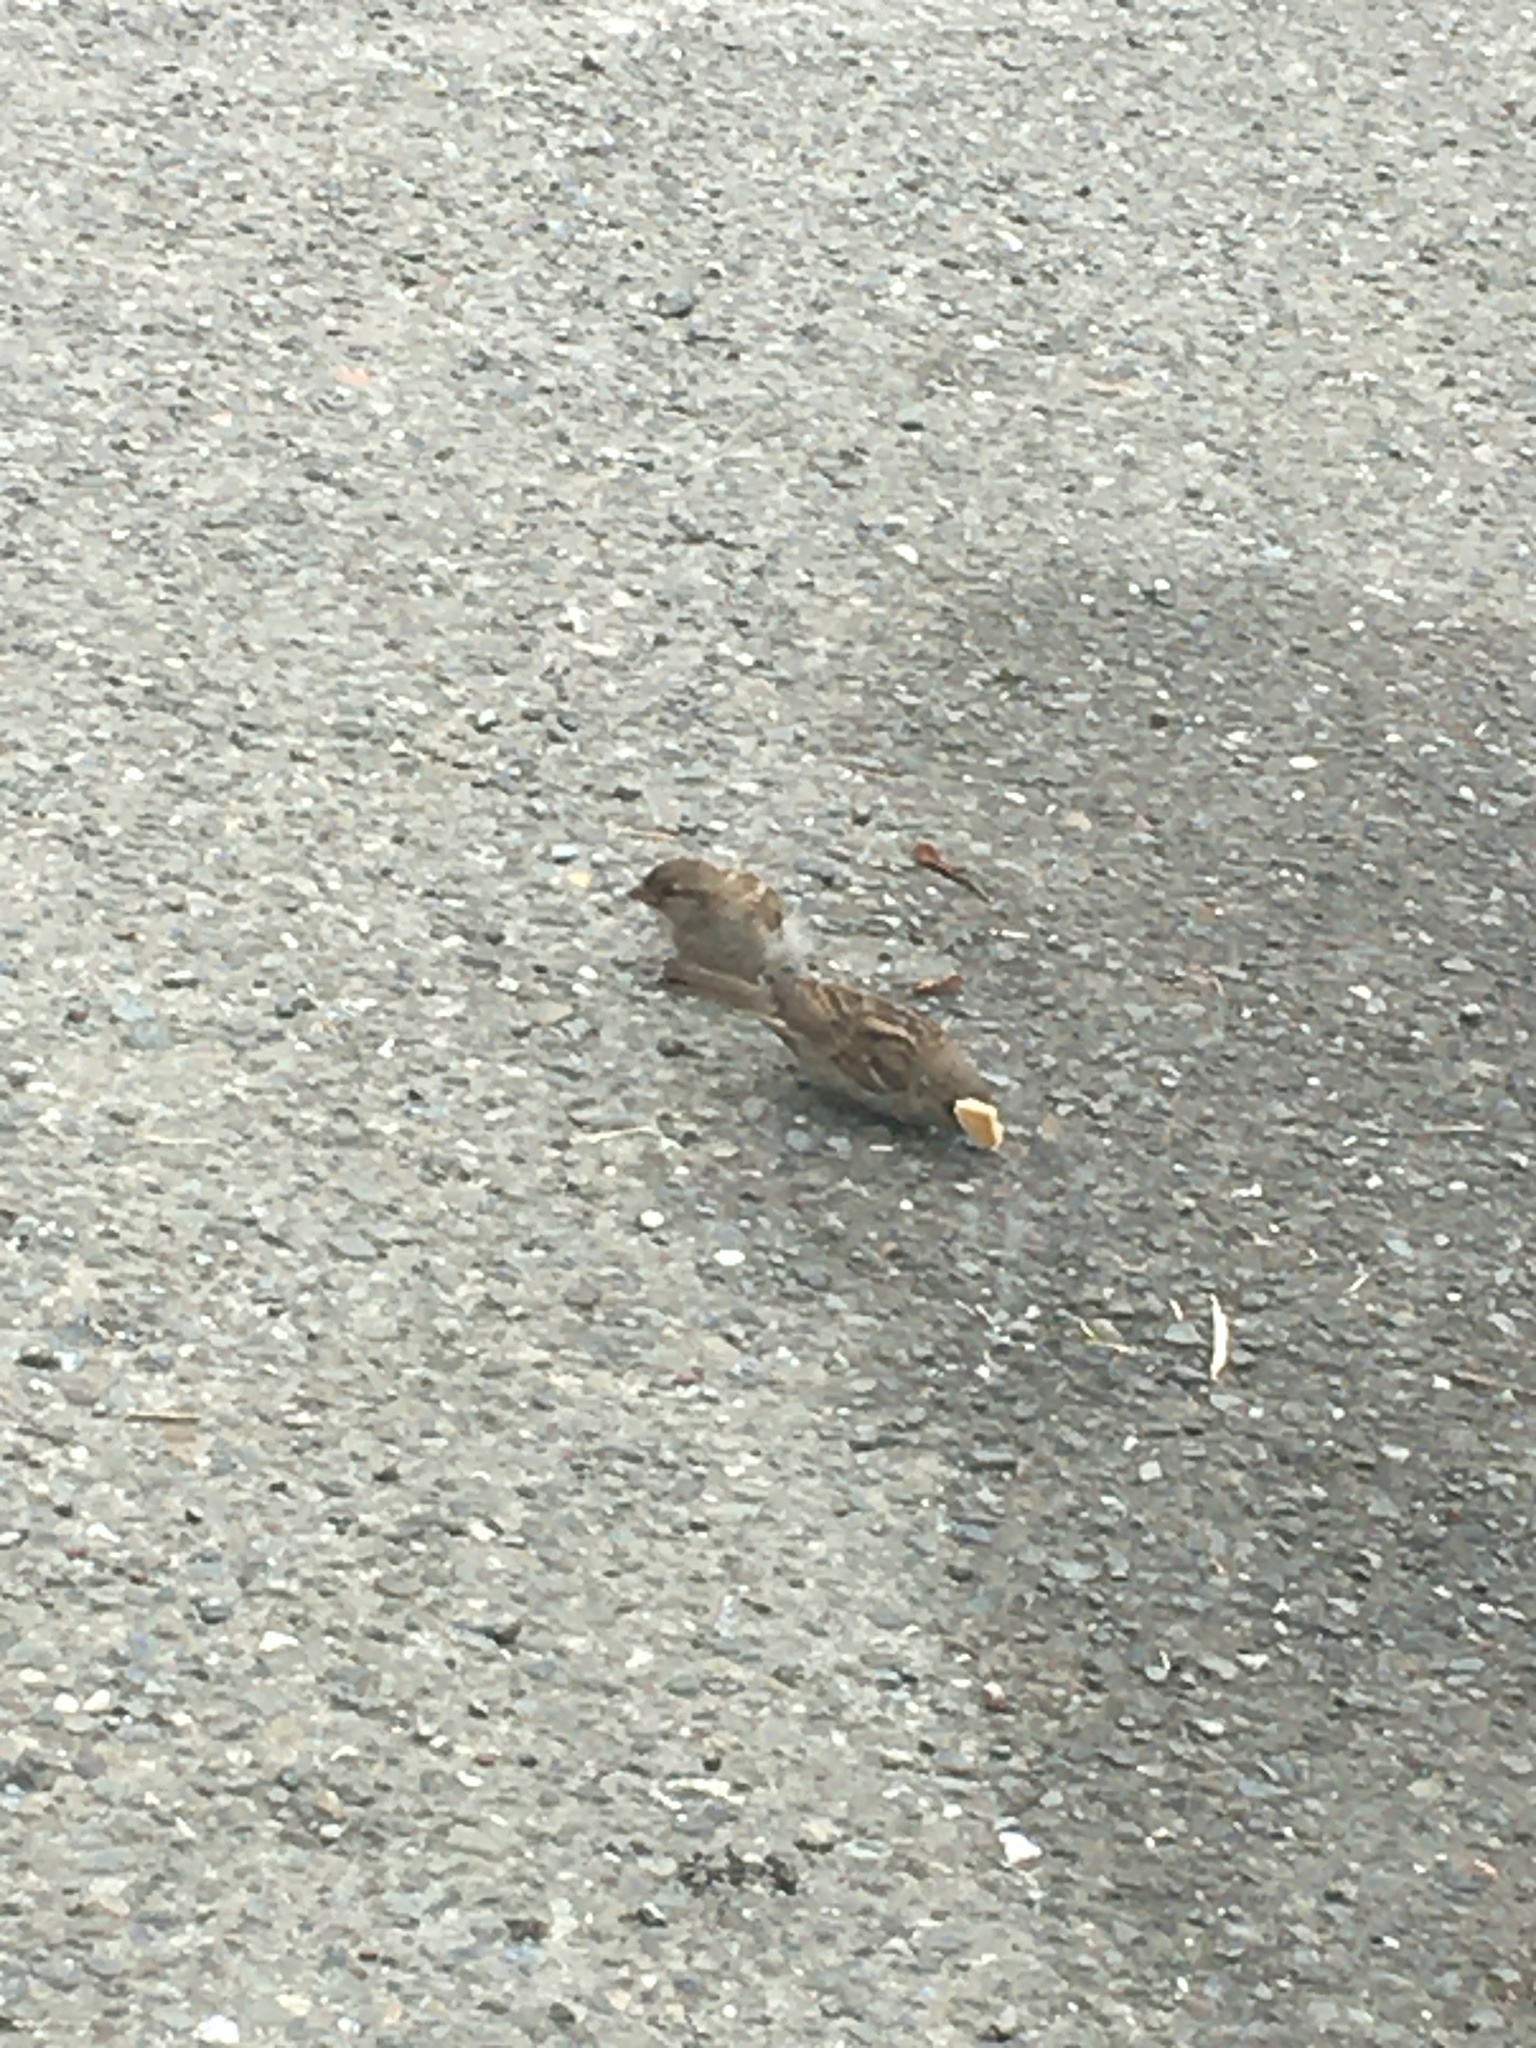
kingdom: Animalia
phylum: Chordata
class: Aves
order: Passeriformes
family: Passeridae
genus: Passer
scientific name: Passer domesticus
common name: House sparrow
